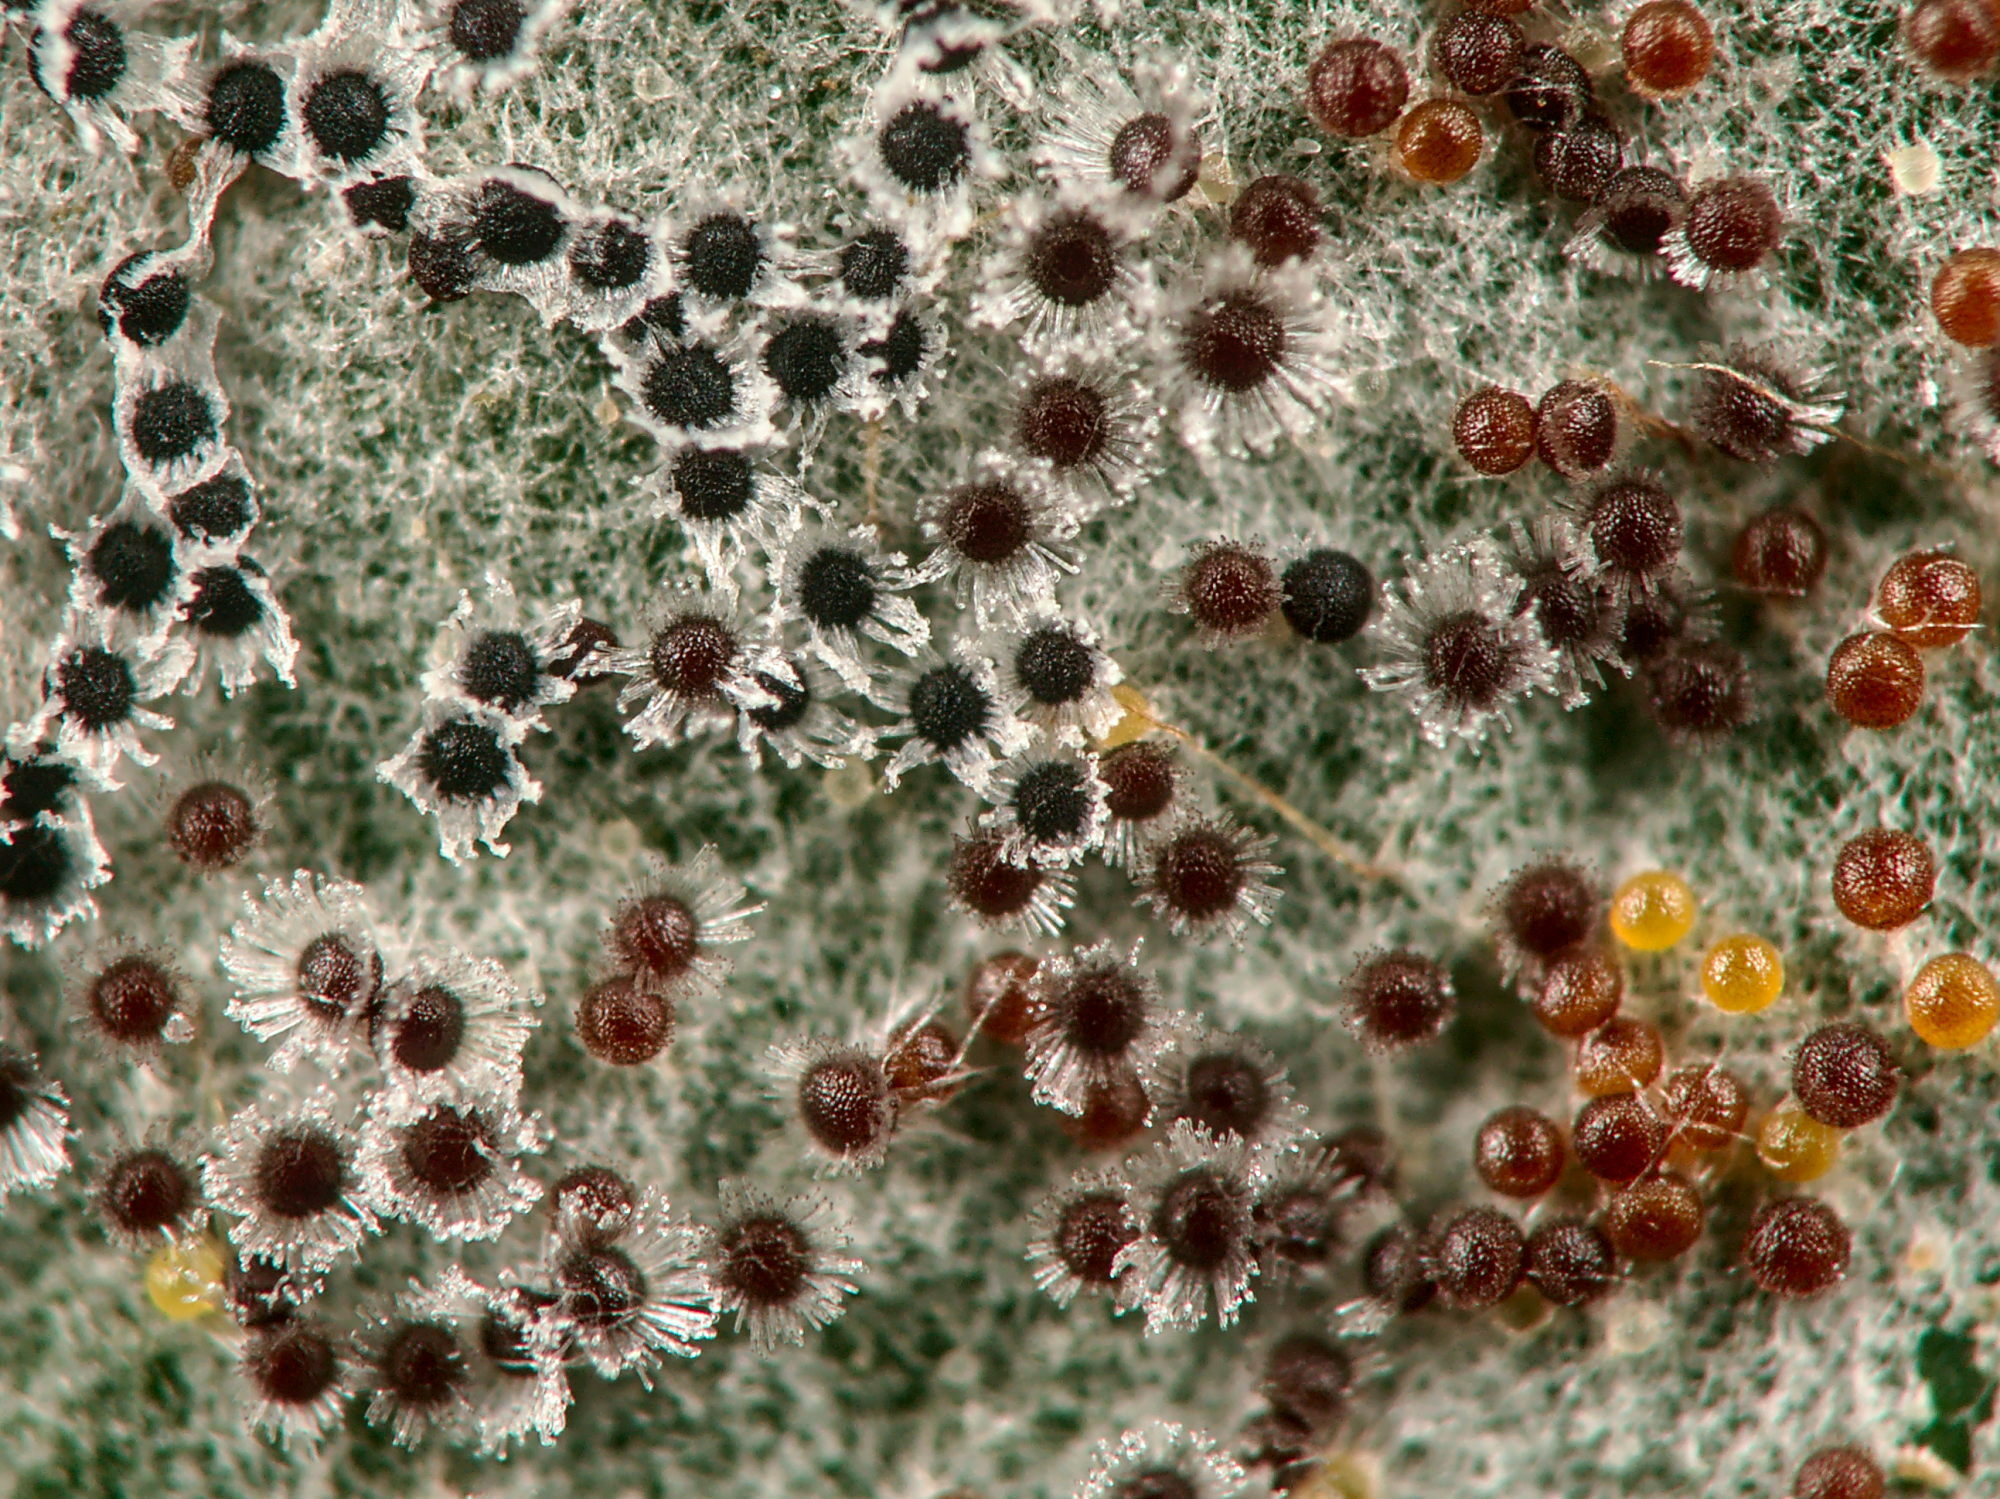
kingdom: Fungi
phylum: Ascomycota
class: Leotiomycetes
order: Helotiales
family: Erysiphaceae
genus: Erysiphe
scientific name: Erysiphe capreae
